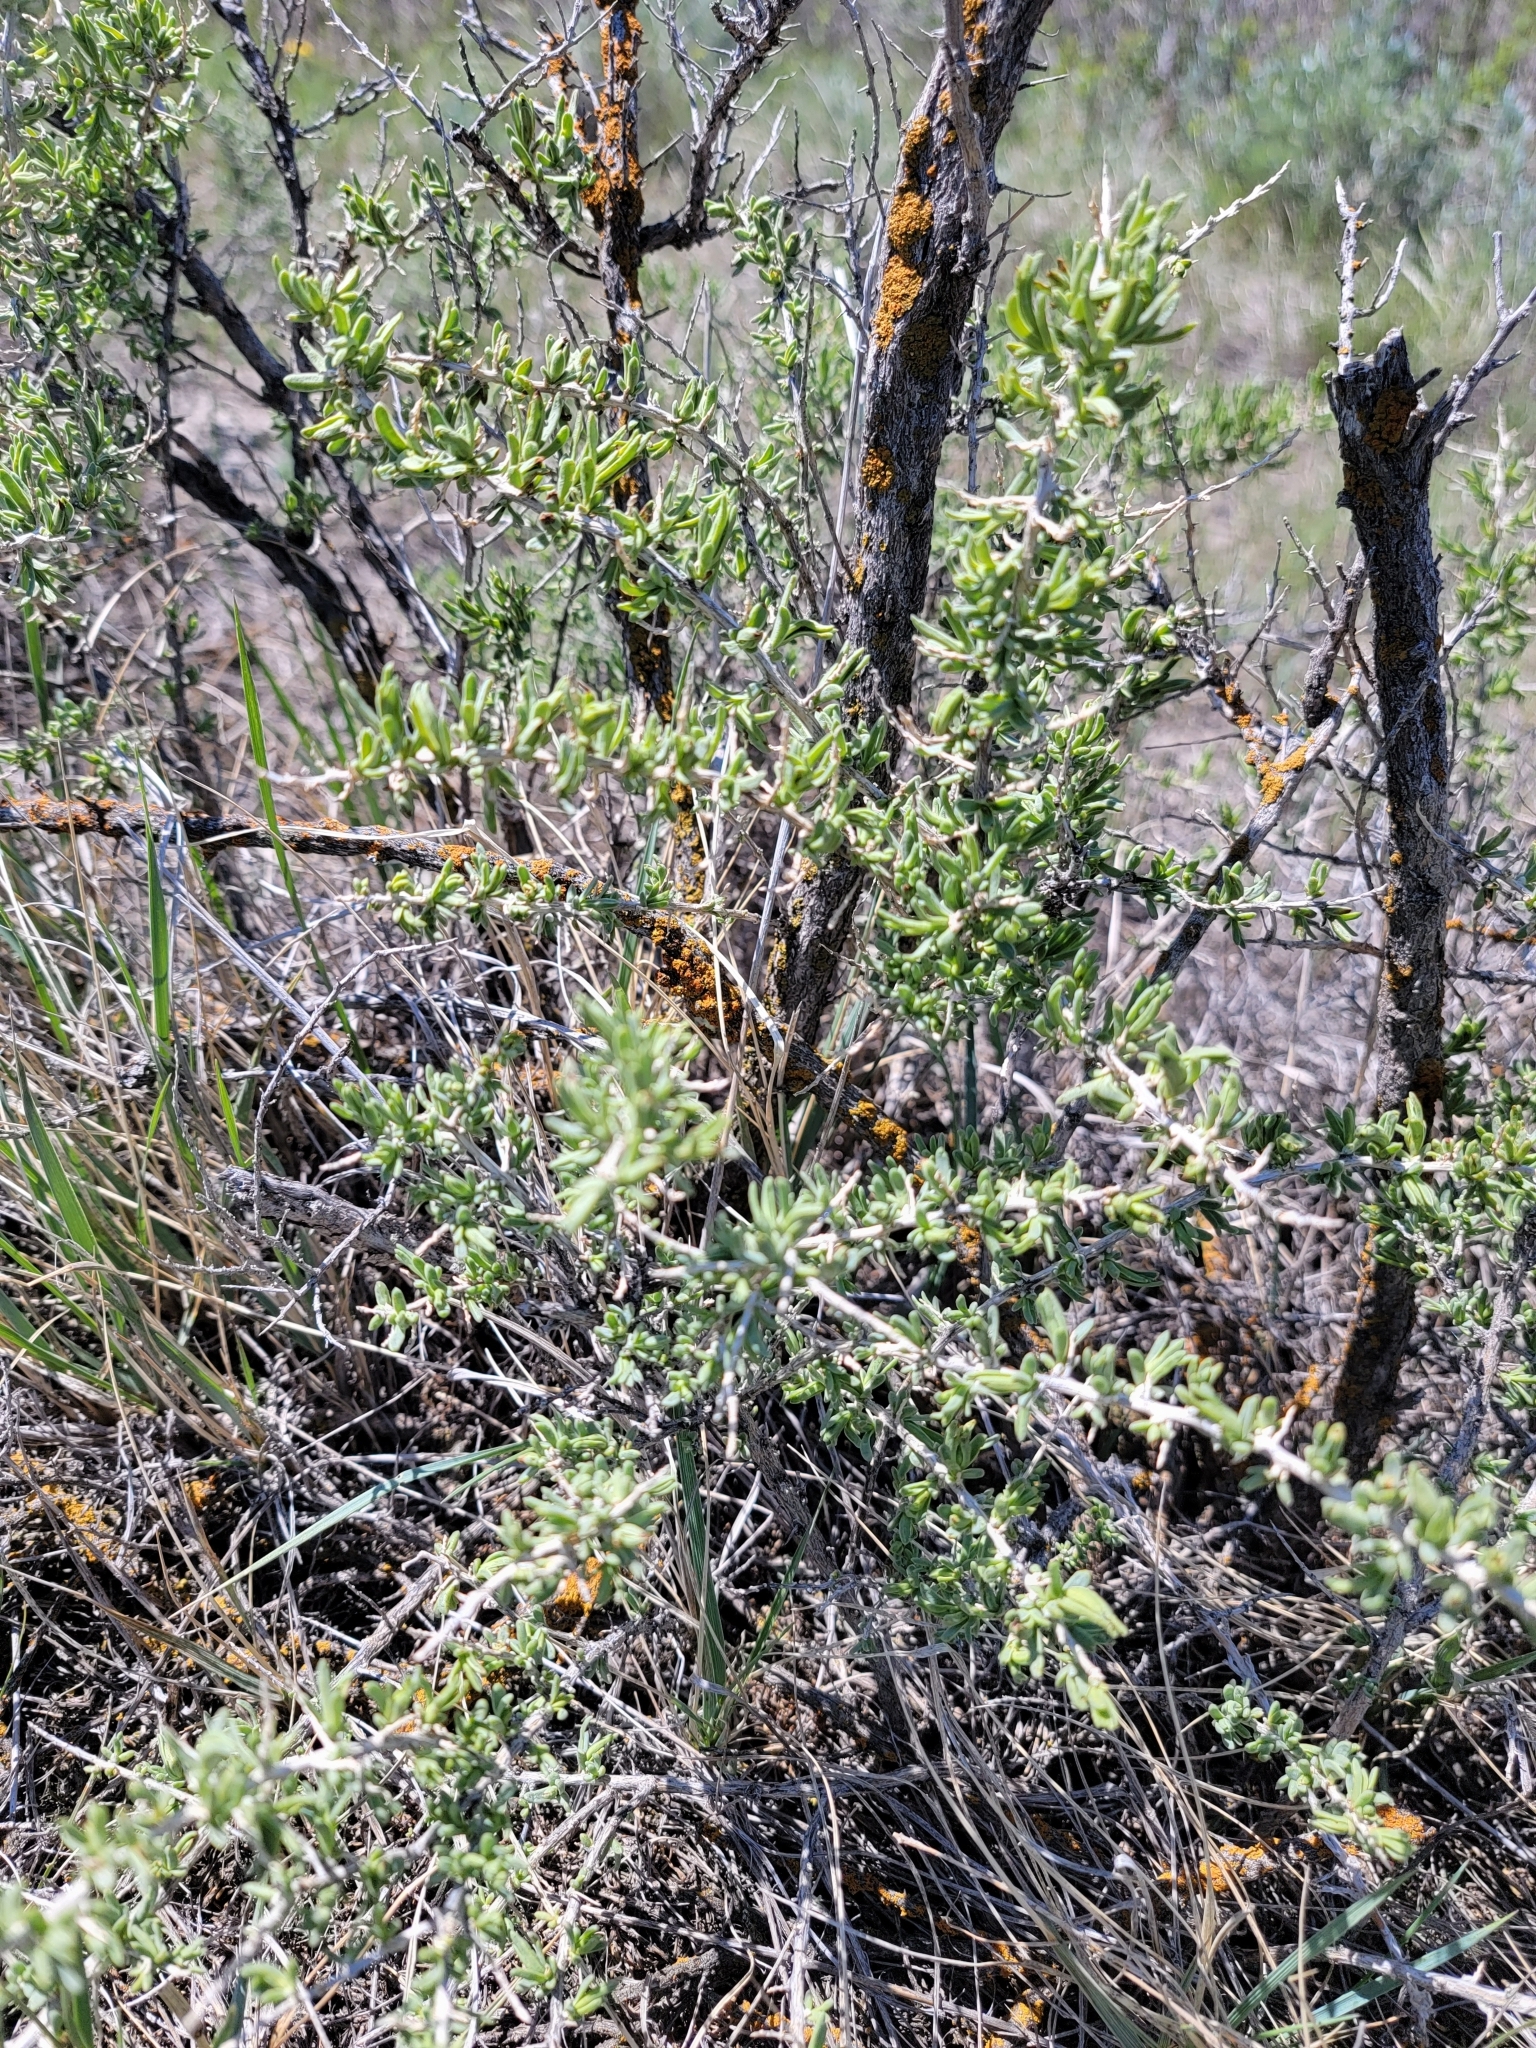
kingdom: Plantae
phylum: Tracheophyta
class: Magnoliopsida
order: Caryophyllales
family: Sarcobataceae
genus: Sarcobatus
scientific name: Sarcobatus vermiculatus
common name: Greasewood
